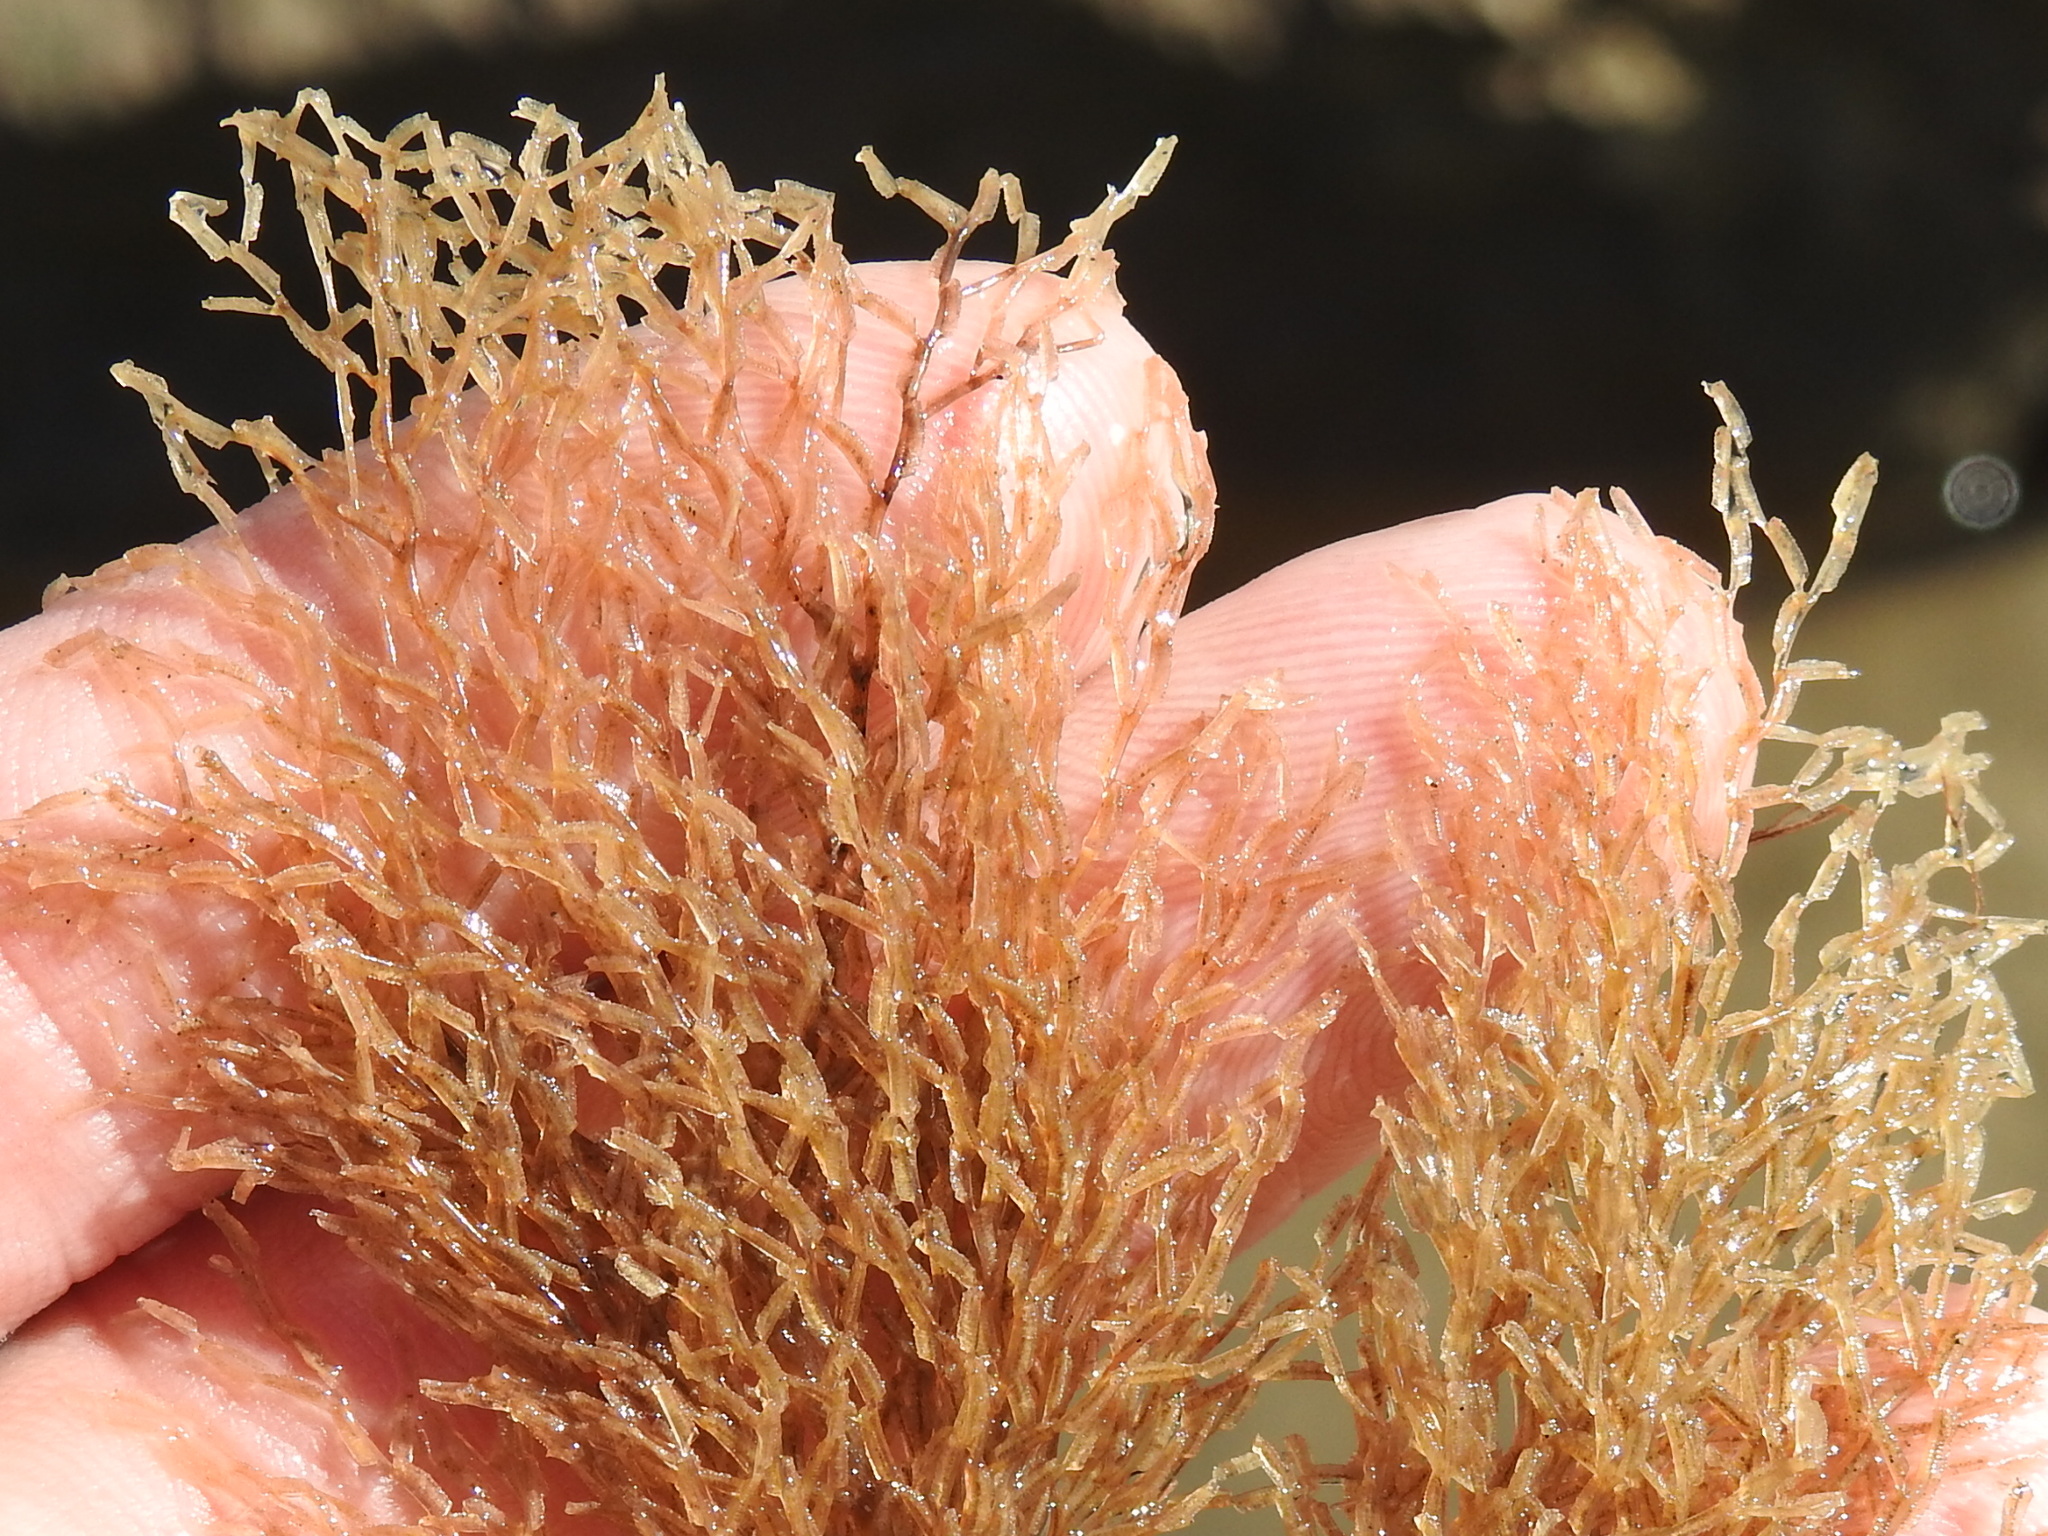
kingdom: Animalia
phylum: Bryozoa
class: Gymnolaemata
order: Ctenostomatida
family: Vesiculariidae
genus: Amathia
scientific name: Amathia alternata
